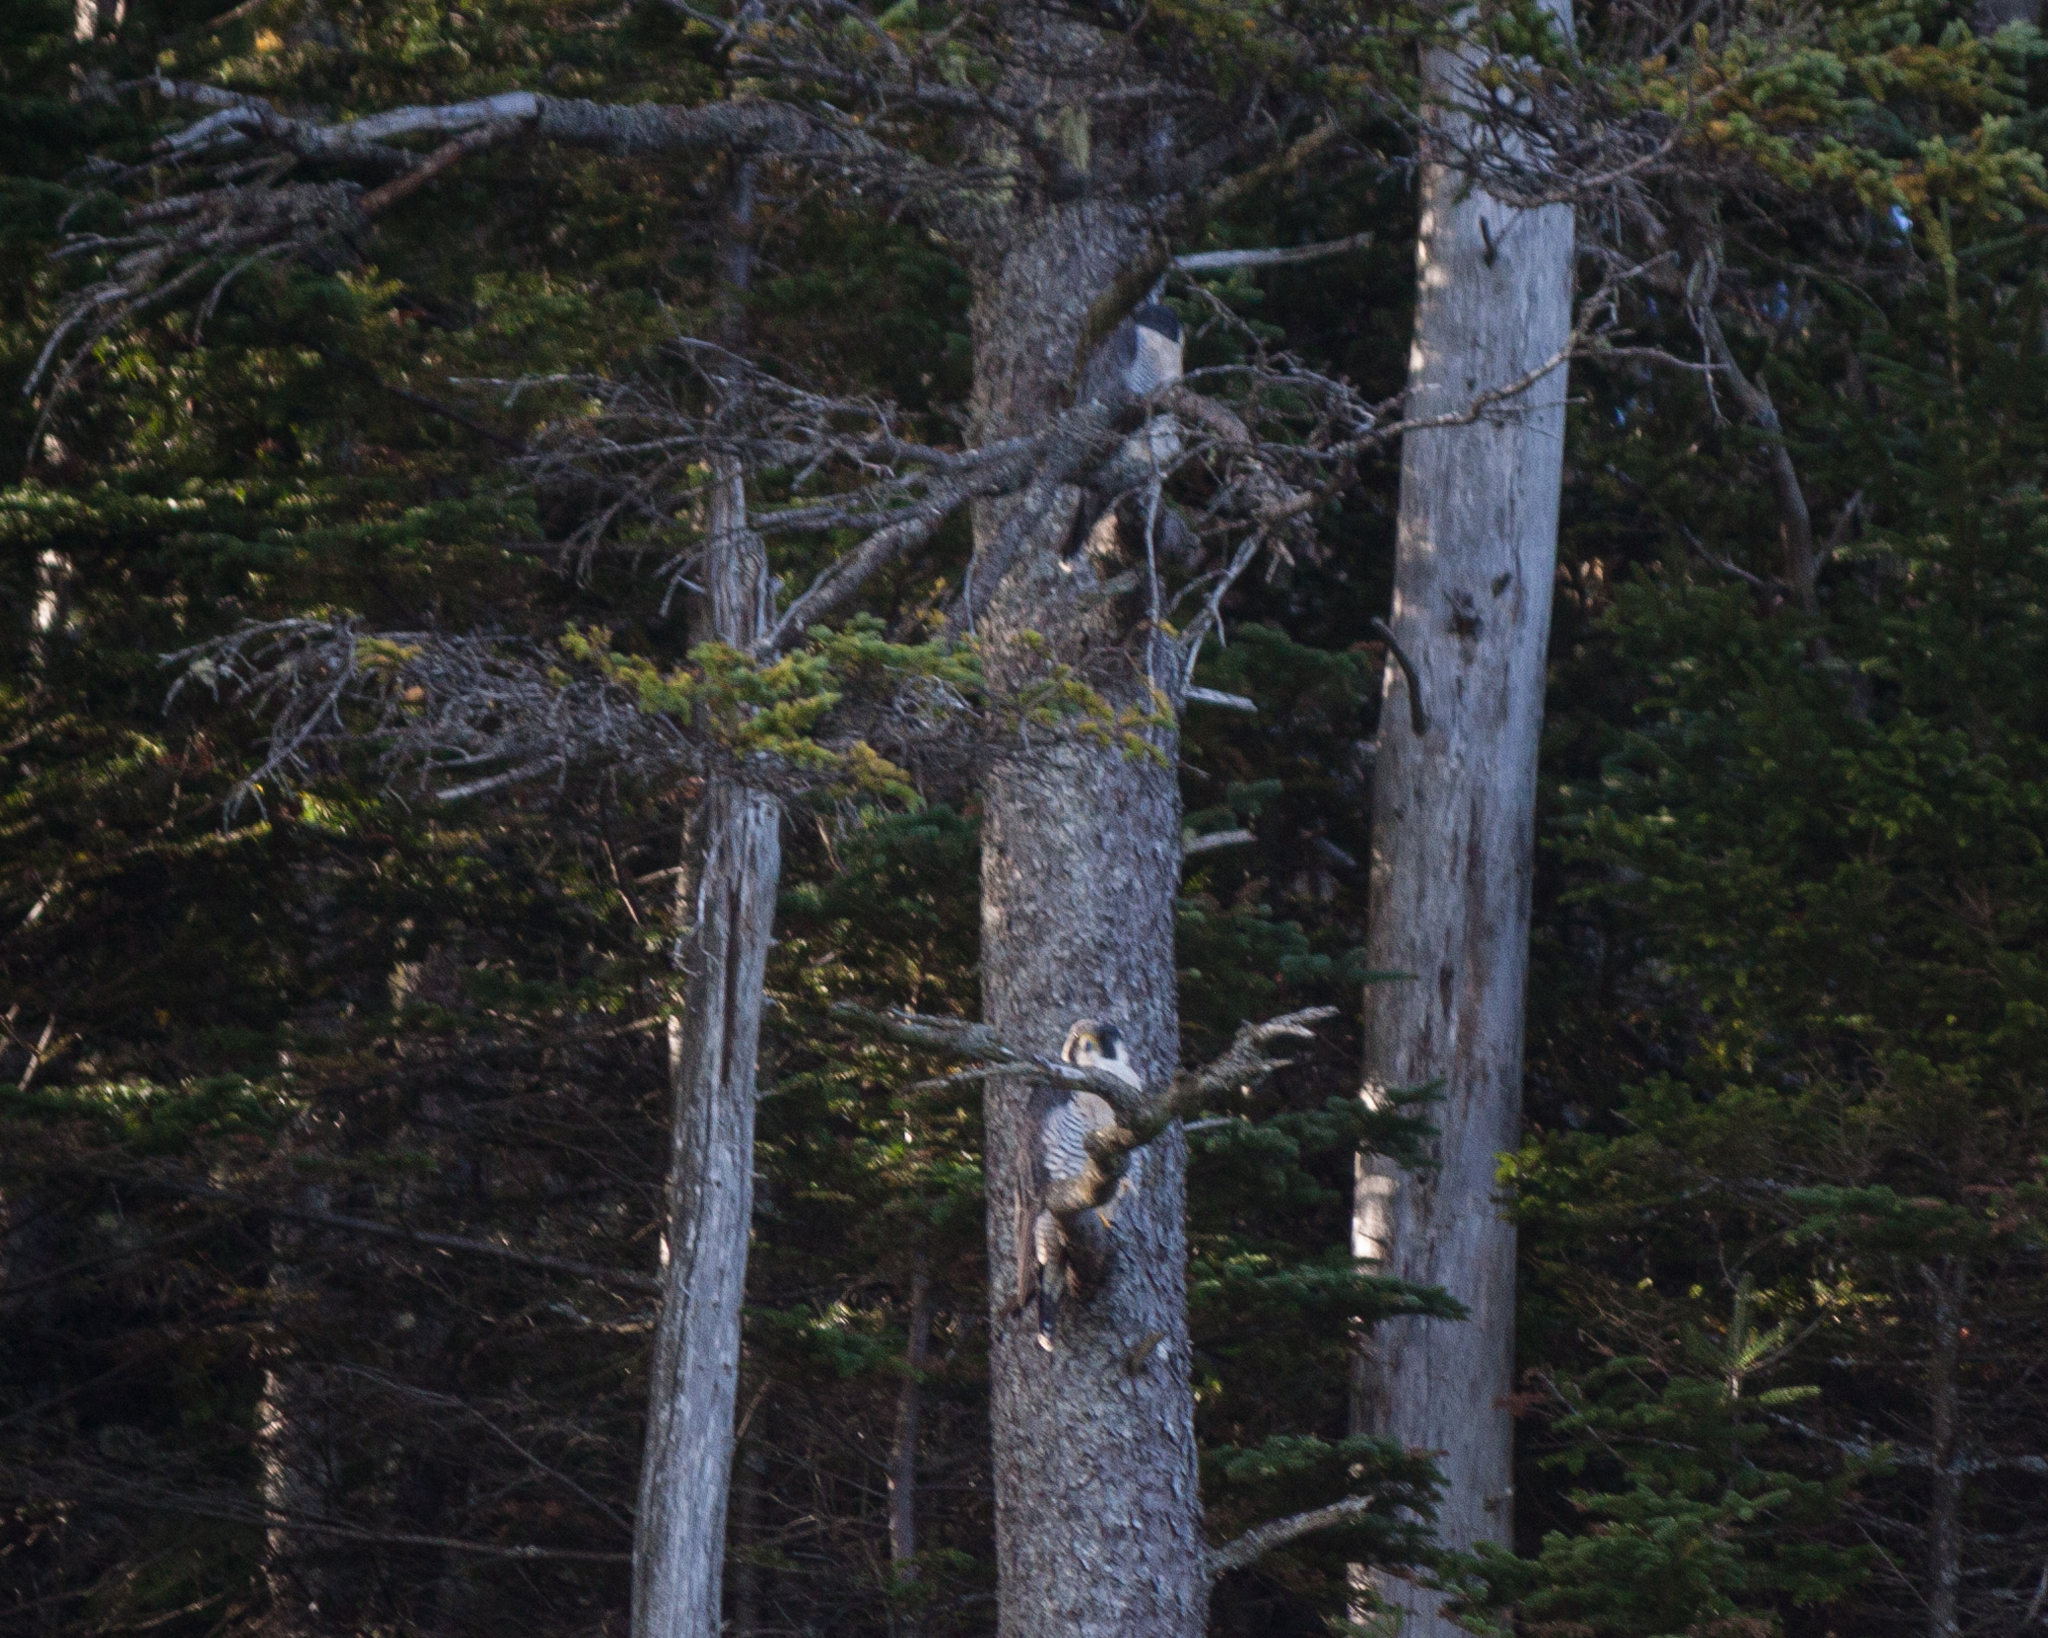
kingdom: Animalia
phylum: Chordata
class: Aves
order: Falconiformes
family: Falconidae
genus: Falco
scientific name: Falco peregrinus
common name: Peregrine falcon
